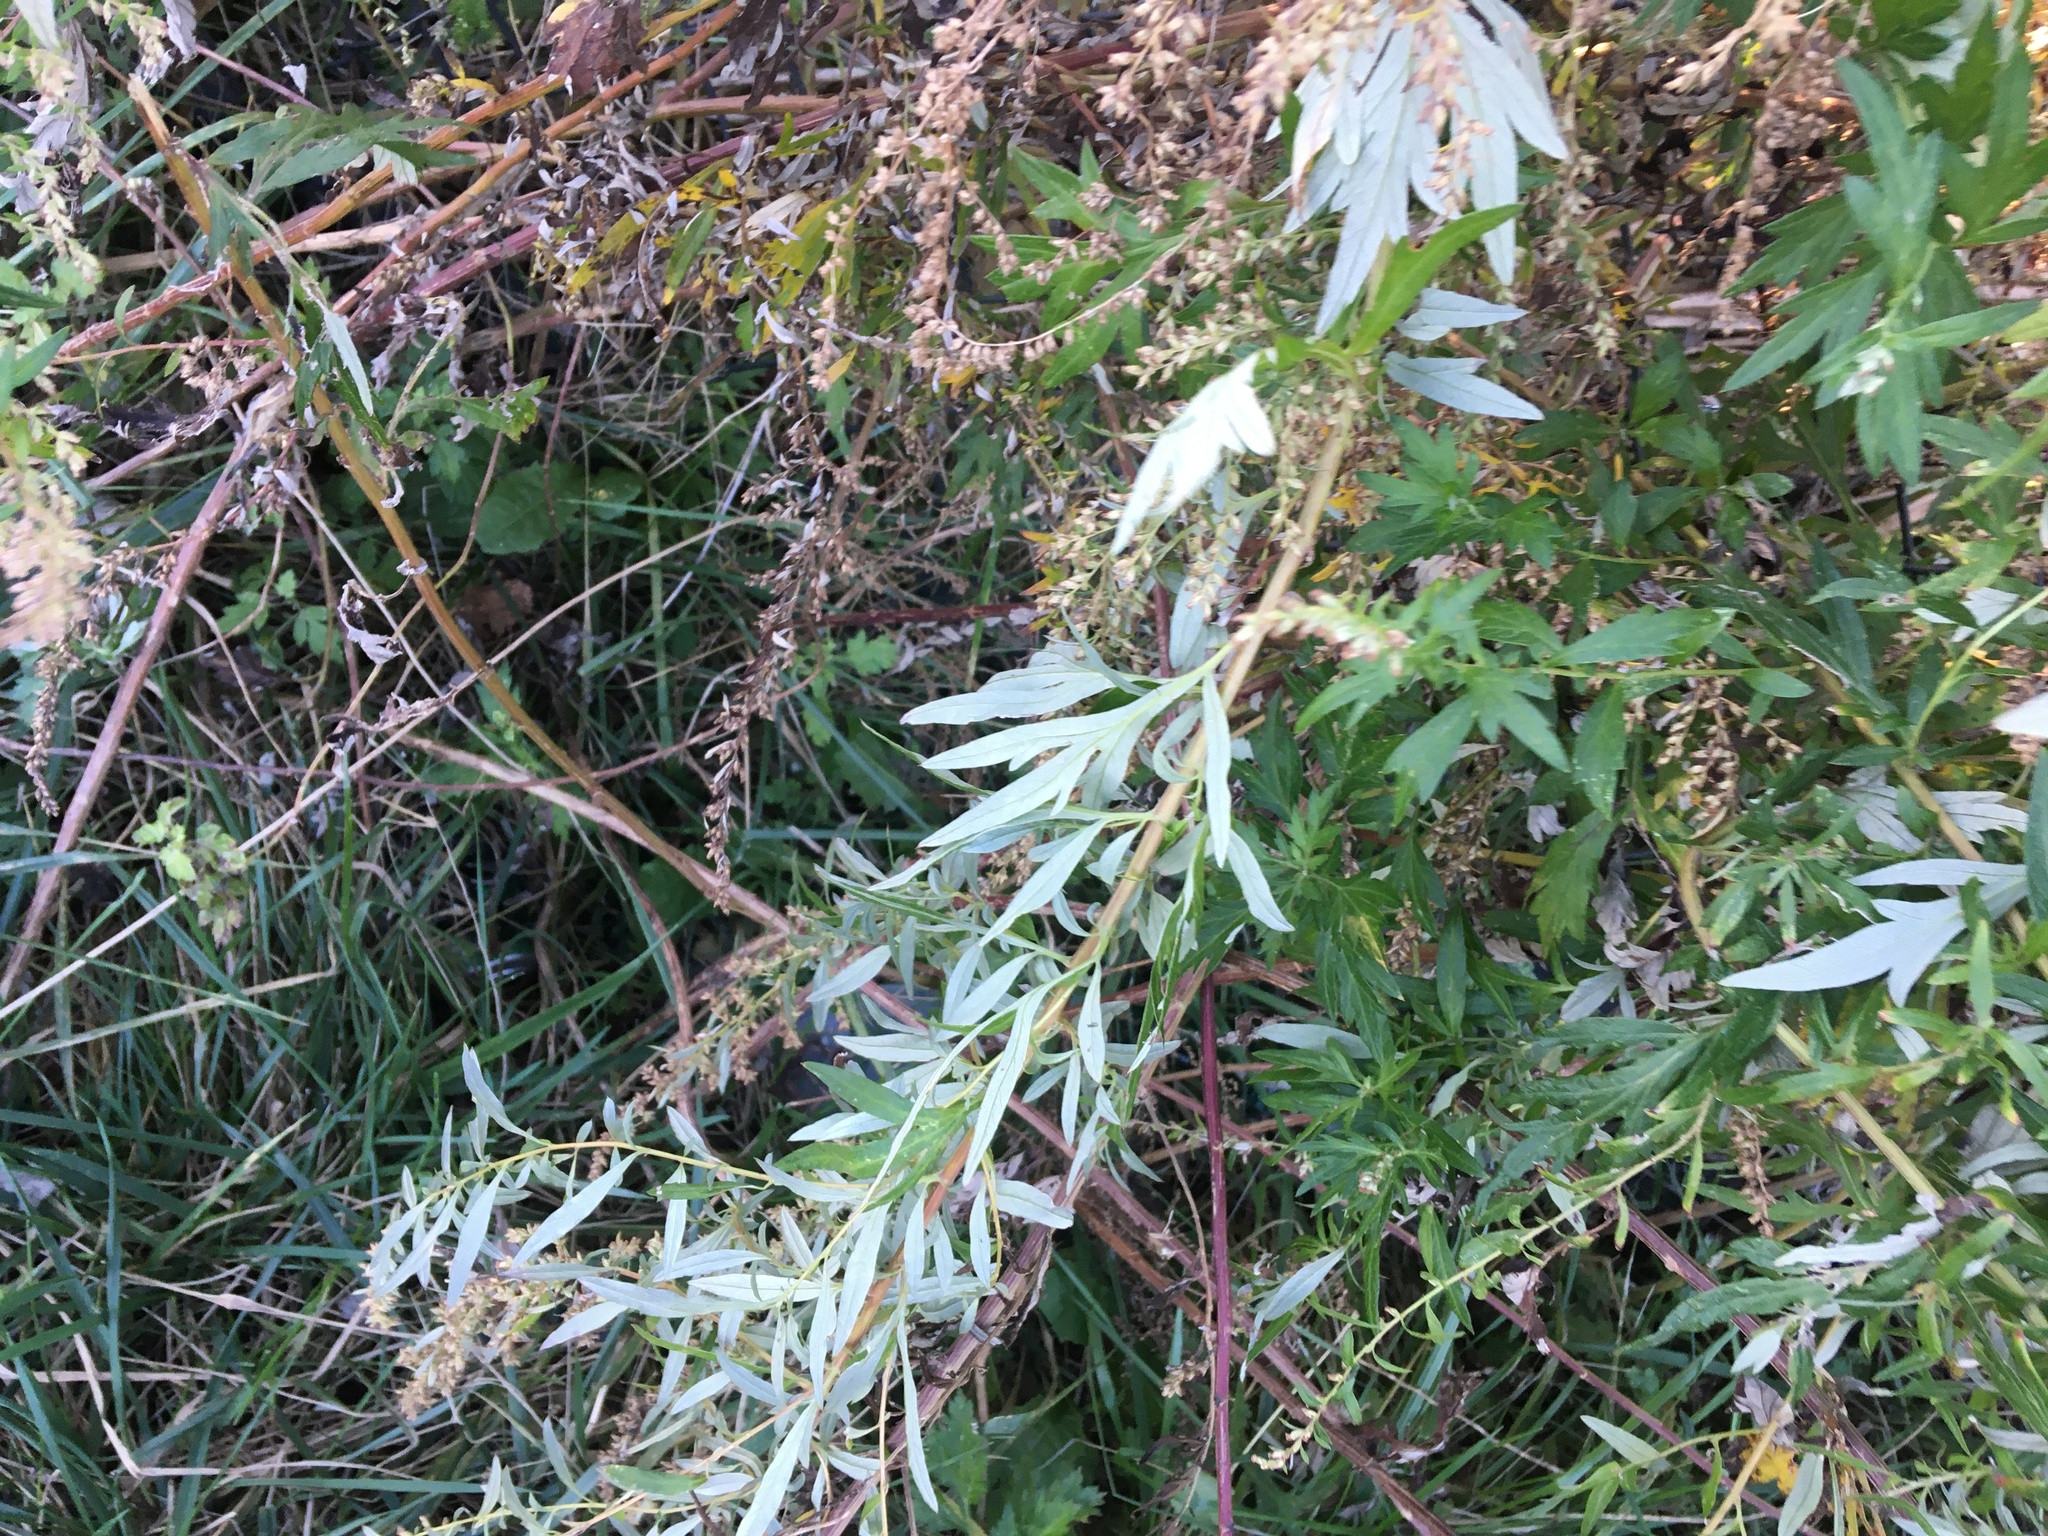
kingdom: Plantae
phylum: Tracheophyta
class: Magnoliopsida
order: Asterales
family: Asteraceae
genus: Artemisia
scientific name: Artemisia vulgaris
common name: Mugwort
